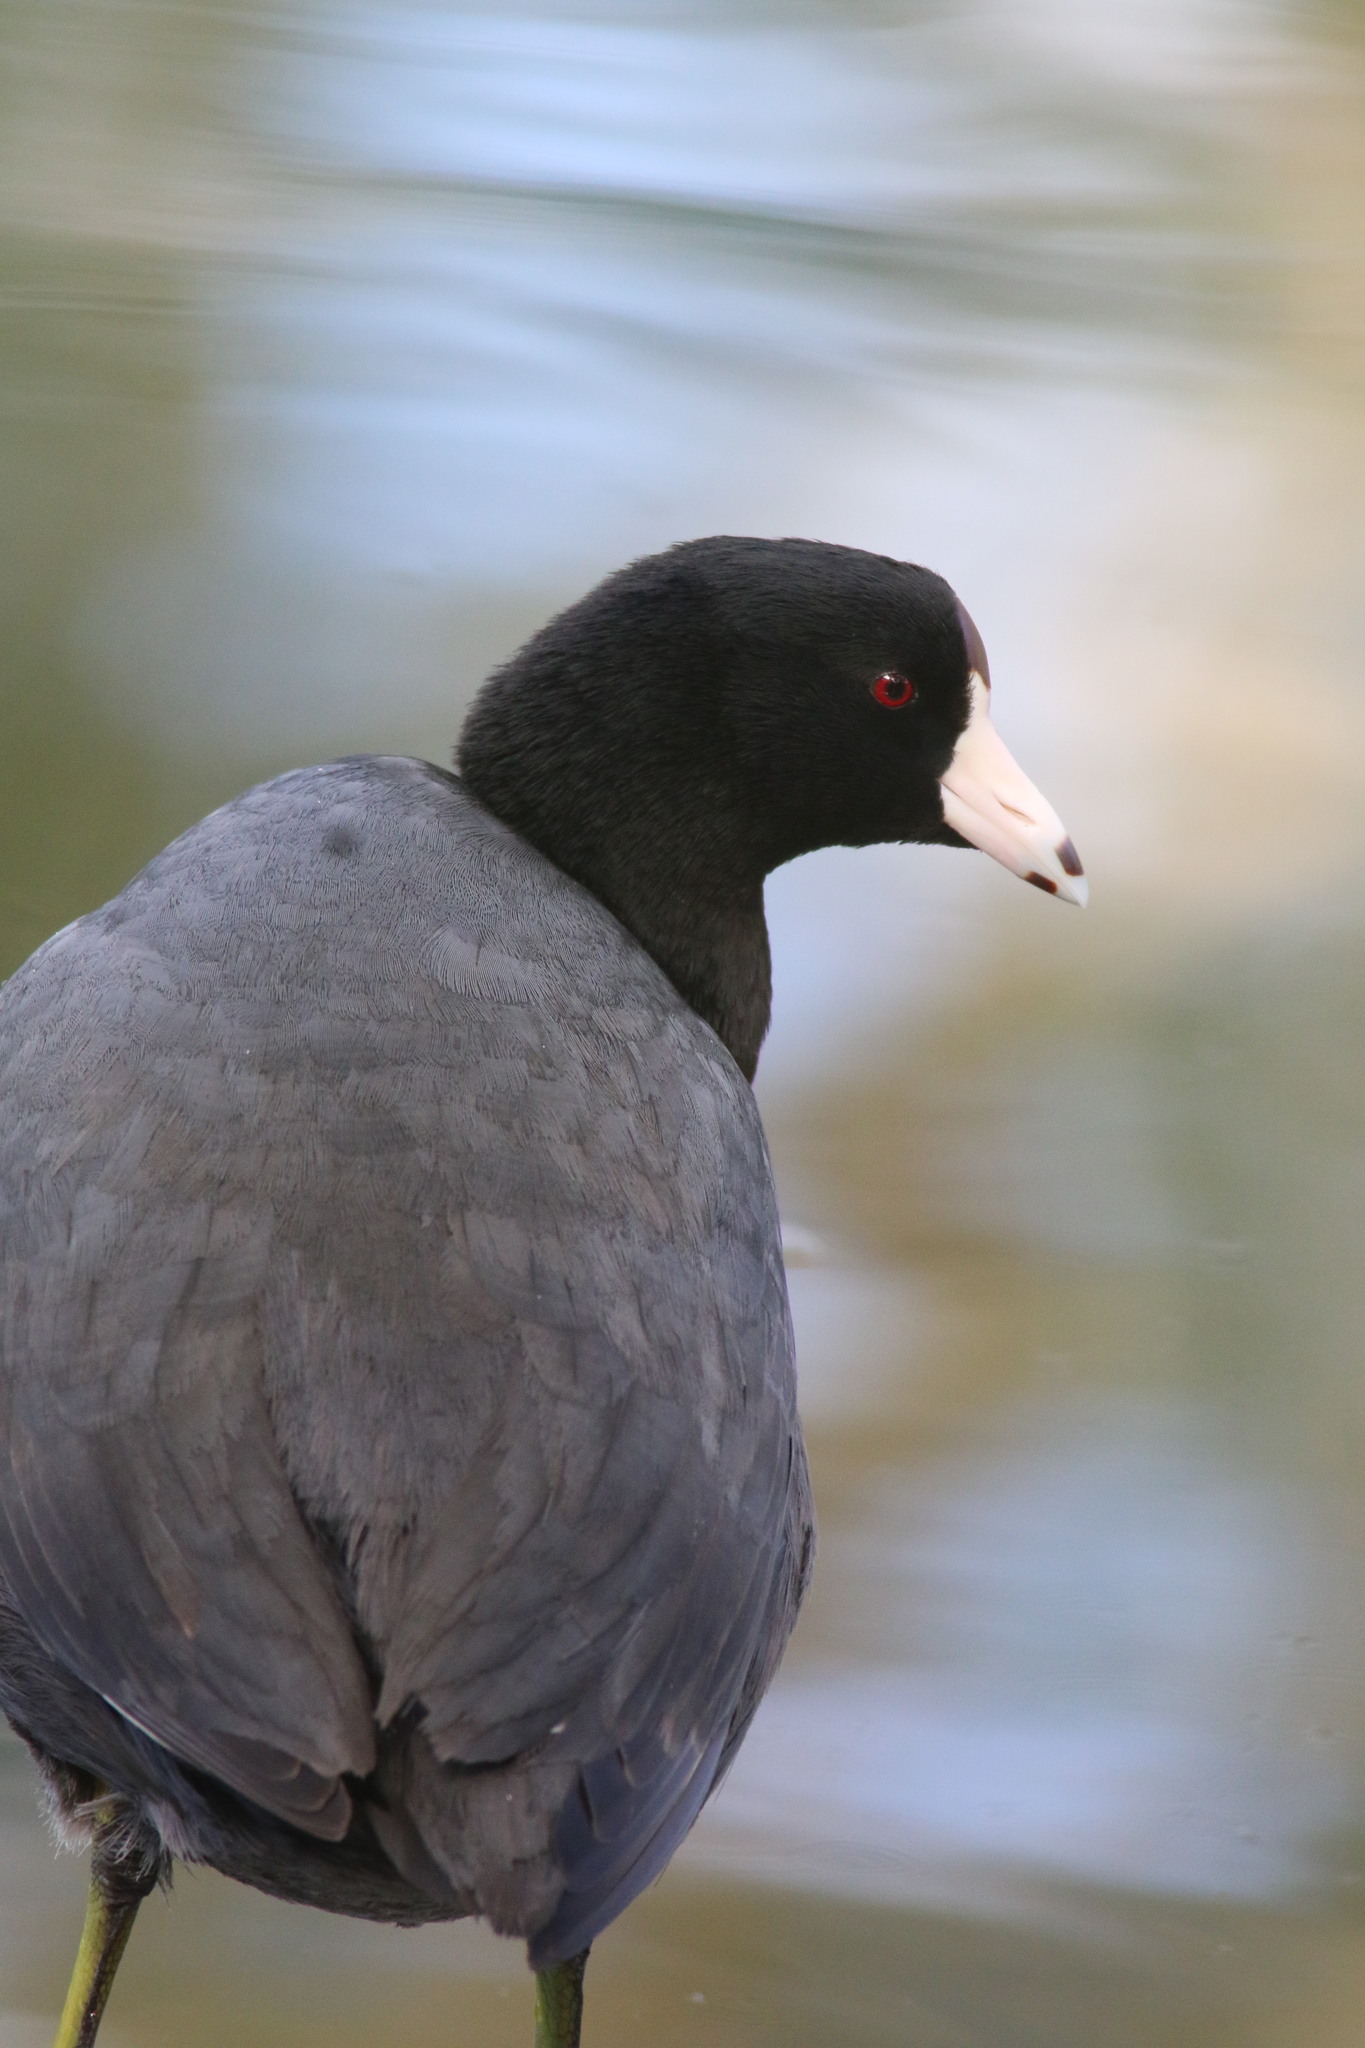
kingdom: Animalia
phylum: Chordata
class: Aves
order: Gruiformes
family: Rallidae
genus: Fulica
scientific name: Fulica americana
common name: American coot
